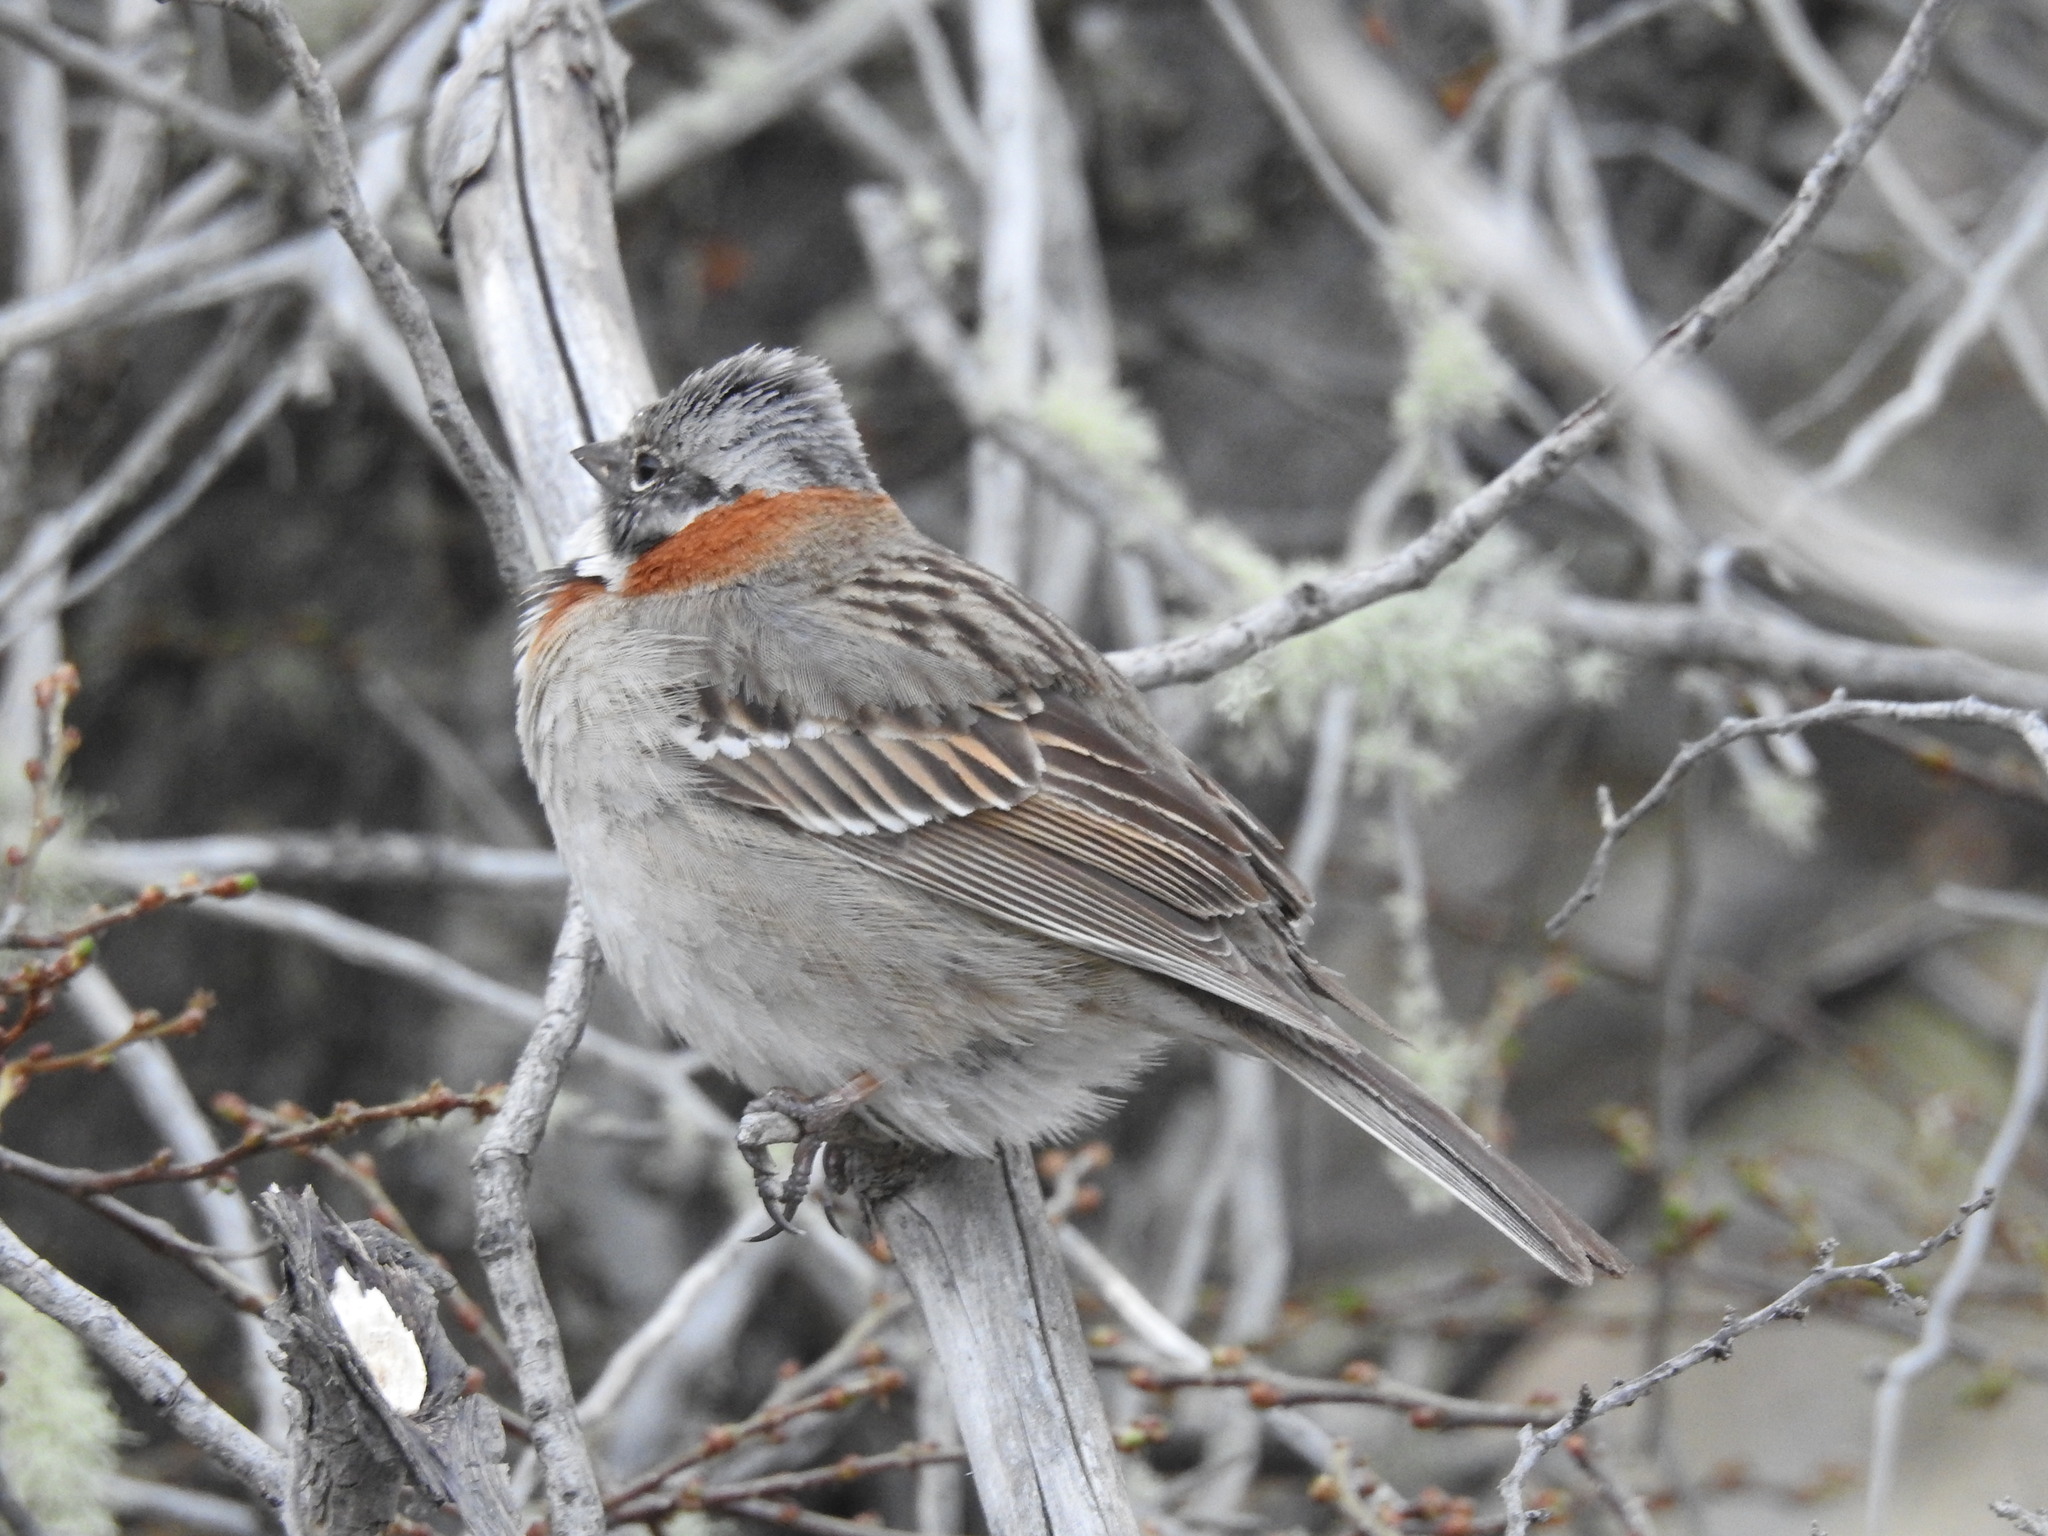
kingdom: Animalia
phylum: Chordata
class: Aves
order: Passeriformes
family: Passerellidae
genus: Zonotrichia
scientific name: Zonotrichia capensis
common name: Rufous-collared sparrow
